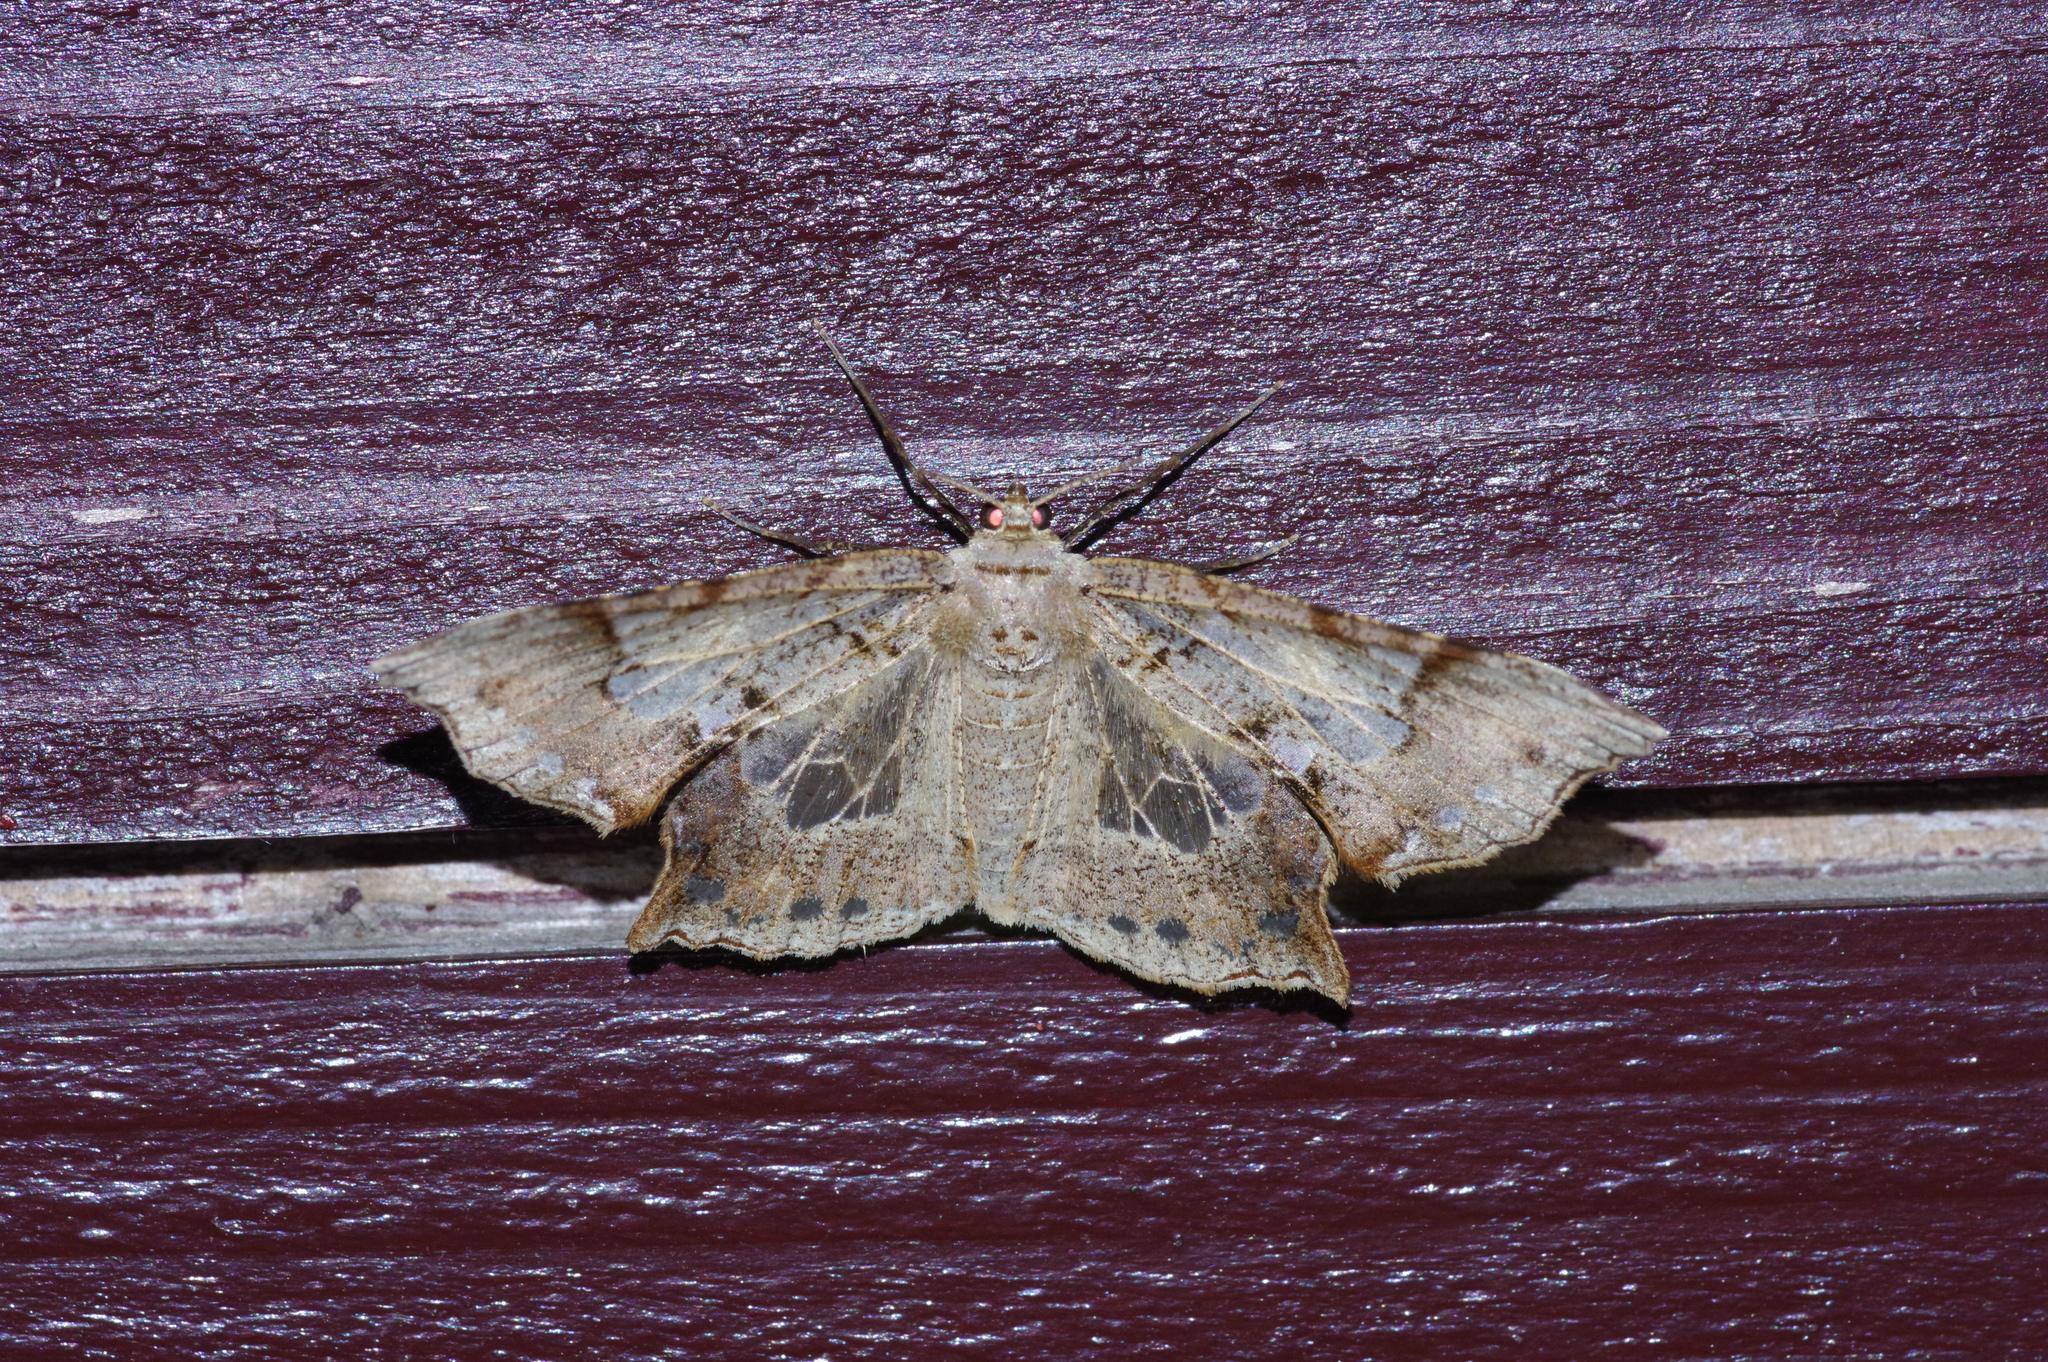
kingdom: Animalia
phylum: Arthropoda
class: Insecta
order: Lepidoptera
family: Geometridae
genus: Krananda
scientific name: Krananda semihyalina
